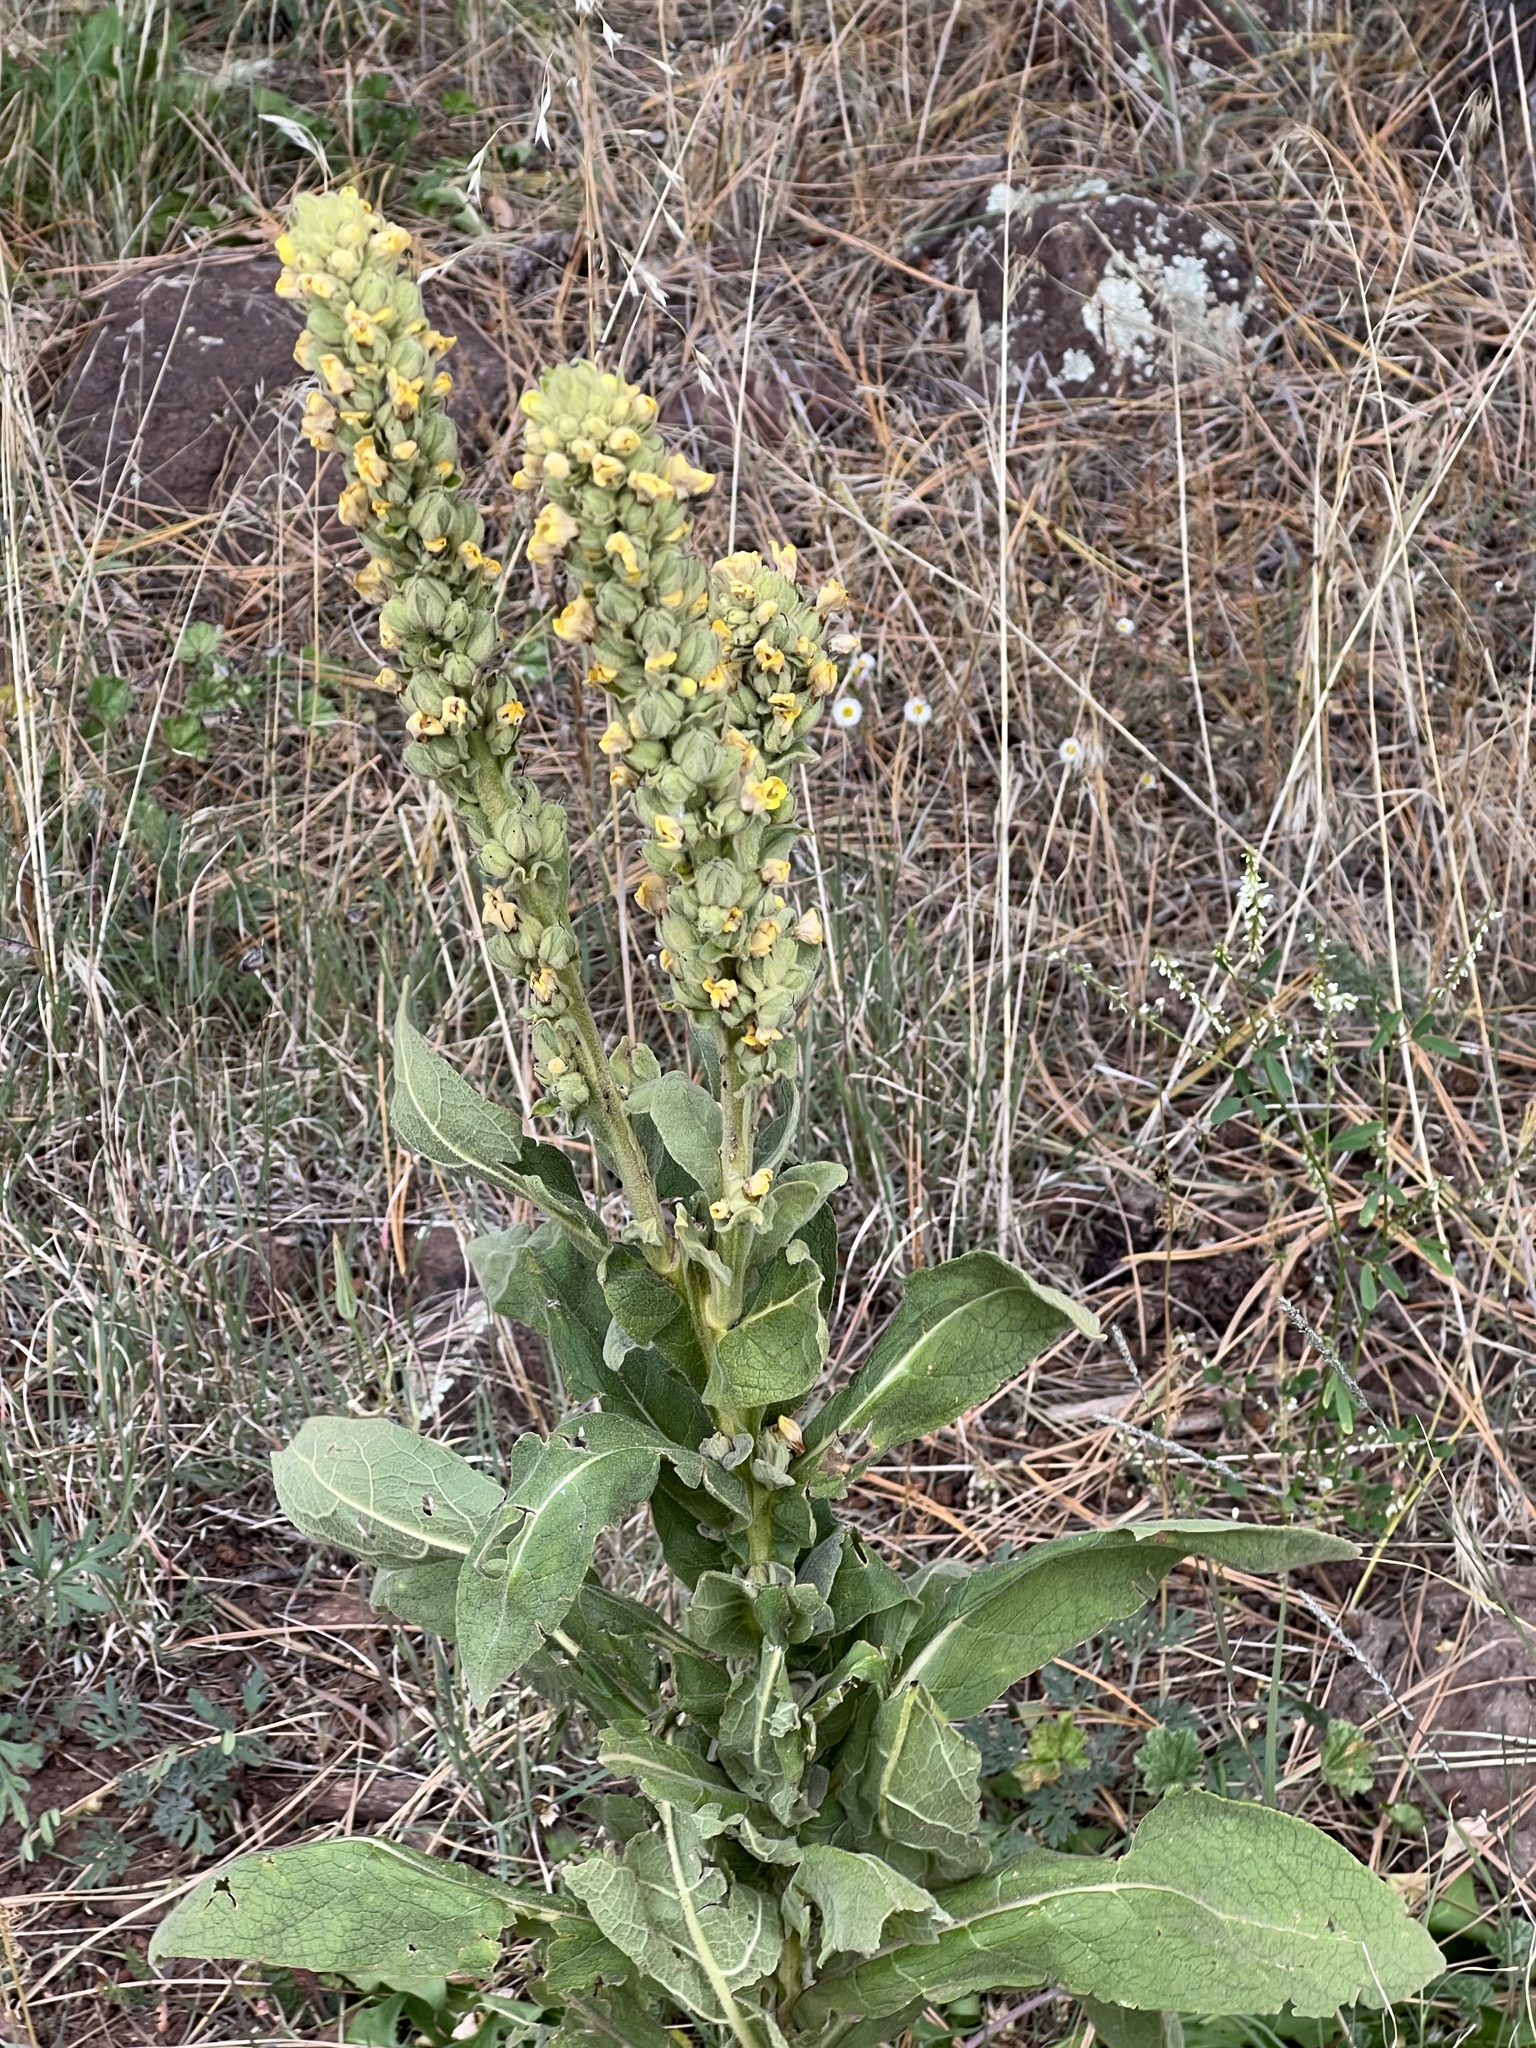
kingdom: Plantae
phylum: Tracheophyta
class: Magnoliopsida
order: Lamiales
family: Scrophulariaceae
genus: Verbascum
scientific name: Verbascum thapsus
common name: Common mullein
